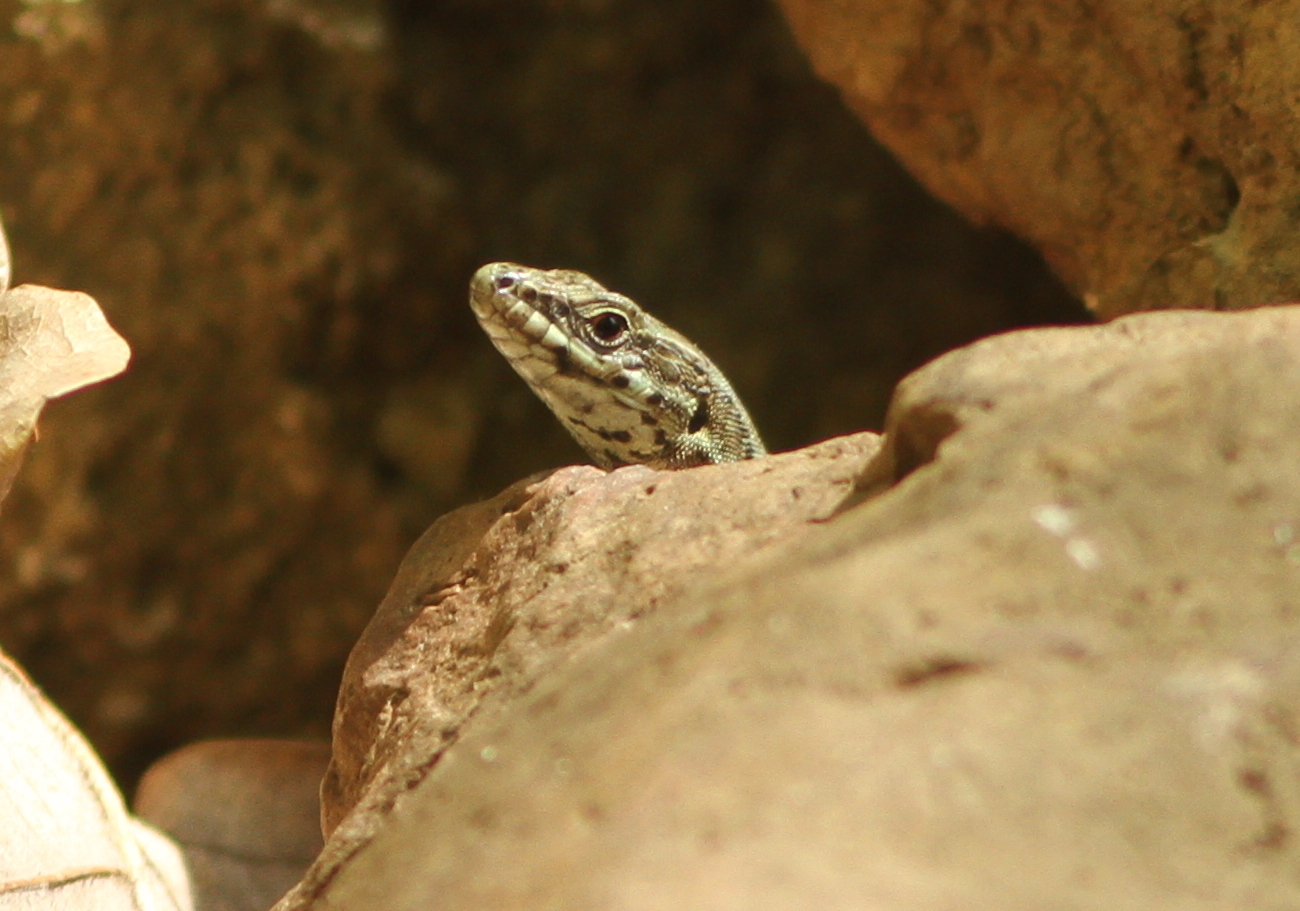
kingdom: Animalia
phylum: Chordata
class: Squamata
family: Lacertidae
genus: Podarcis
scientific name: Podarcis muralis
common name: Common wall lizard
